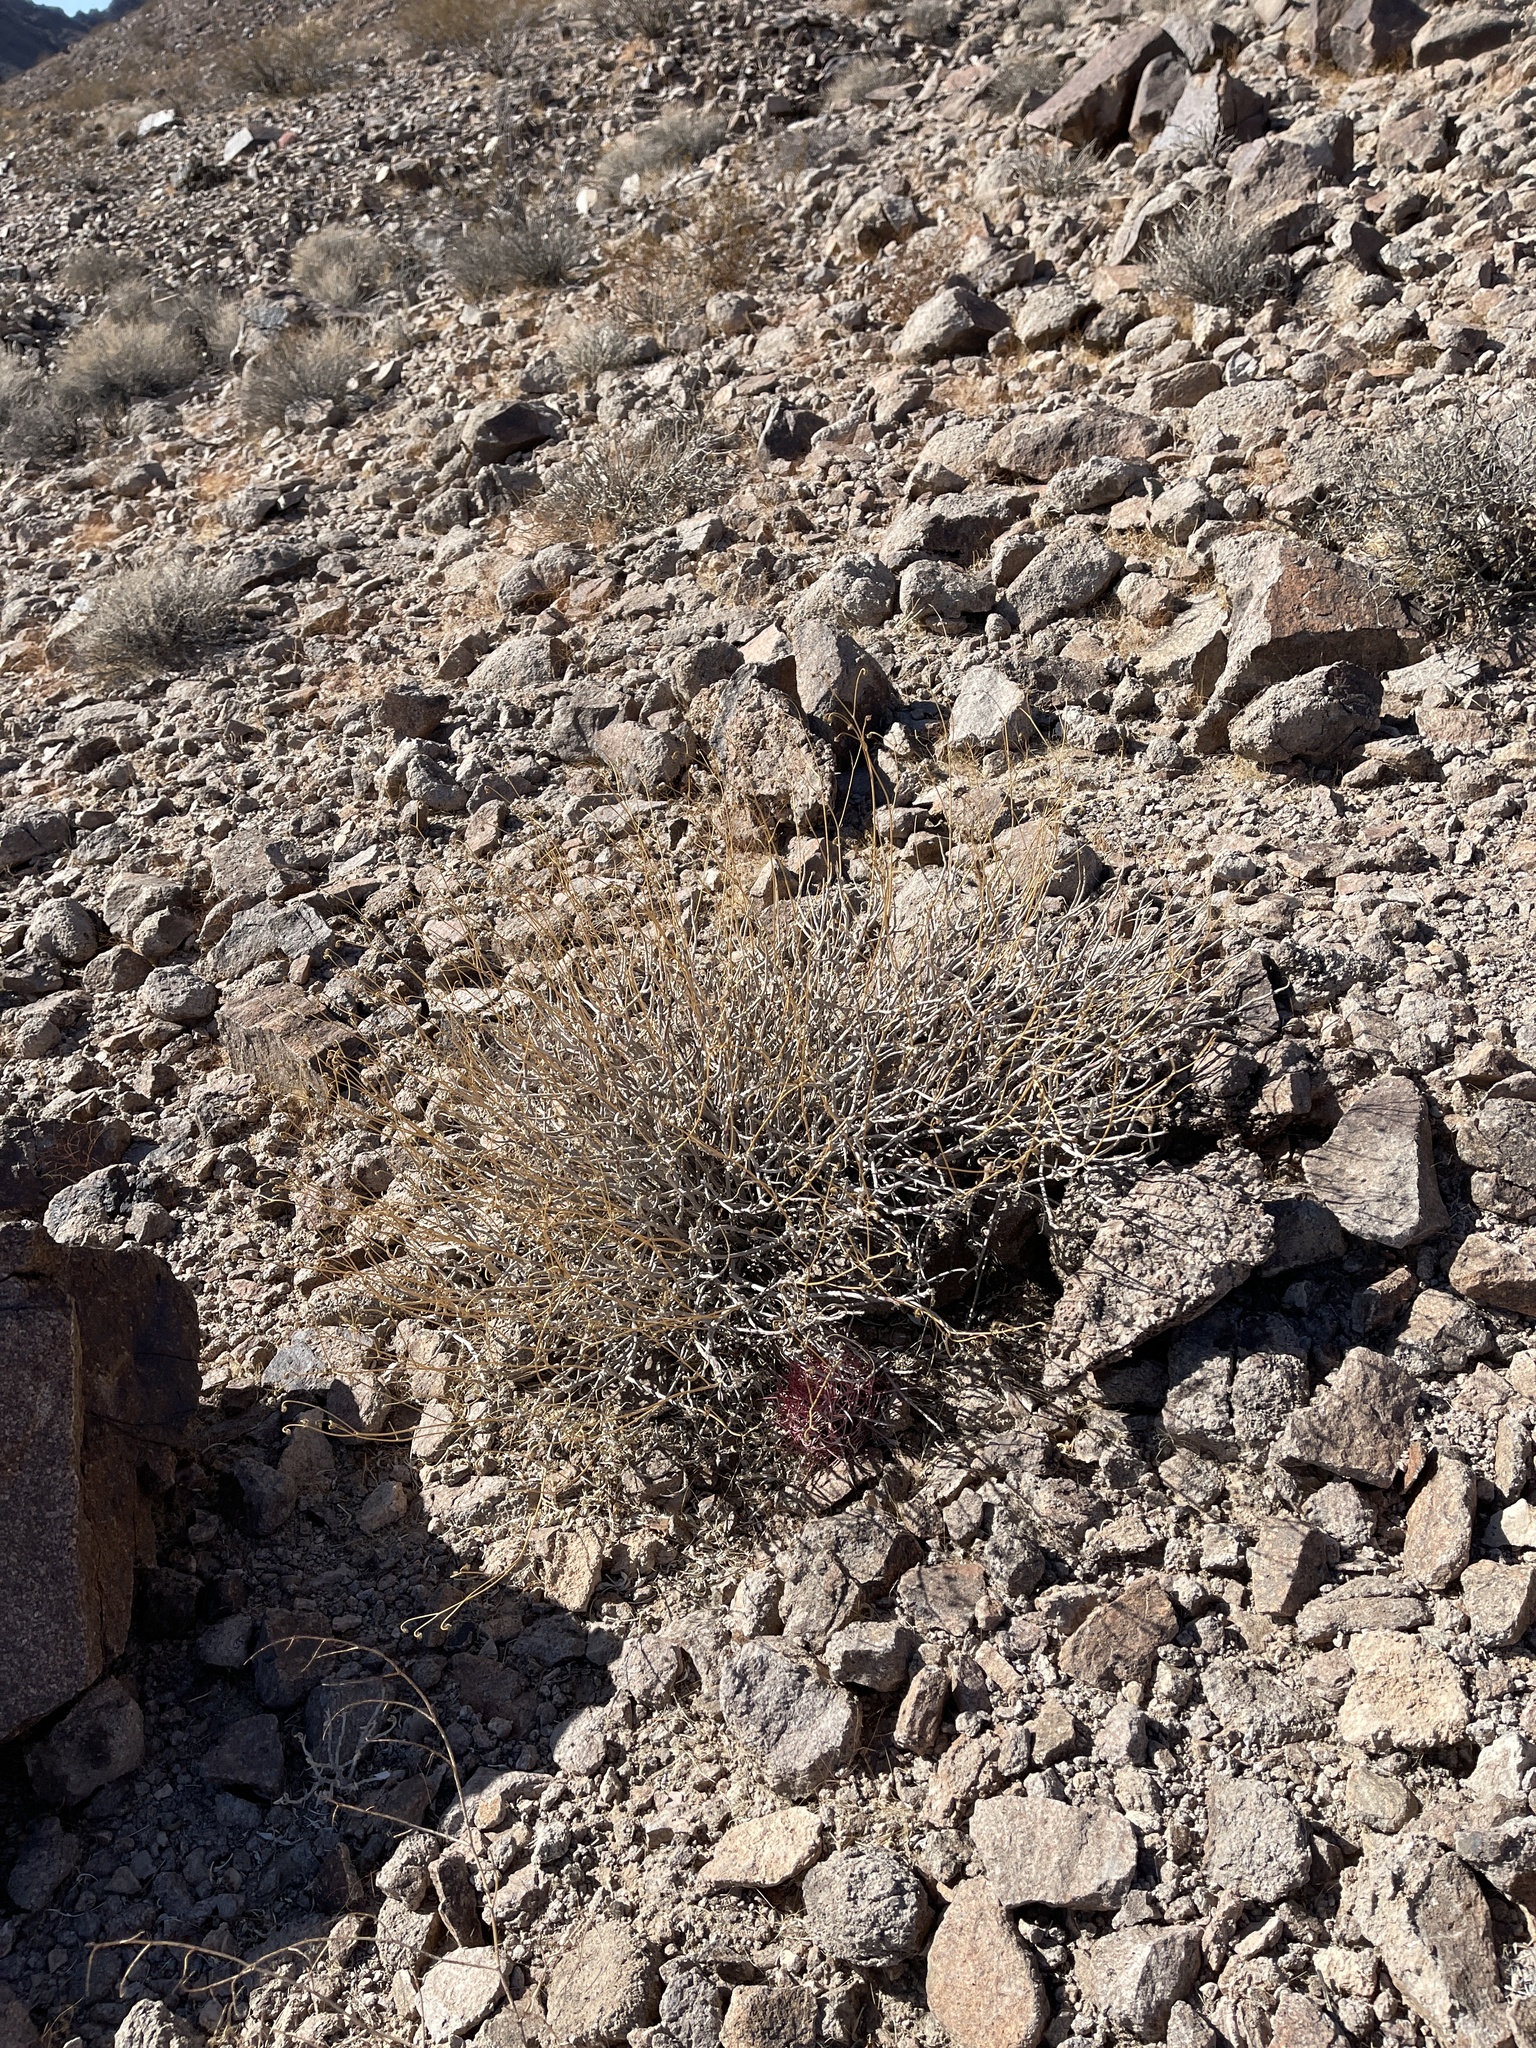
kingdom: Plantae
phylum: Tracheophyta
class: Magnoliopsida
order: Asterales
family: Asteraceae
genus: Encelia
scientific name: Encelia farinosa
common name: Brittlebush
